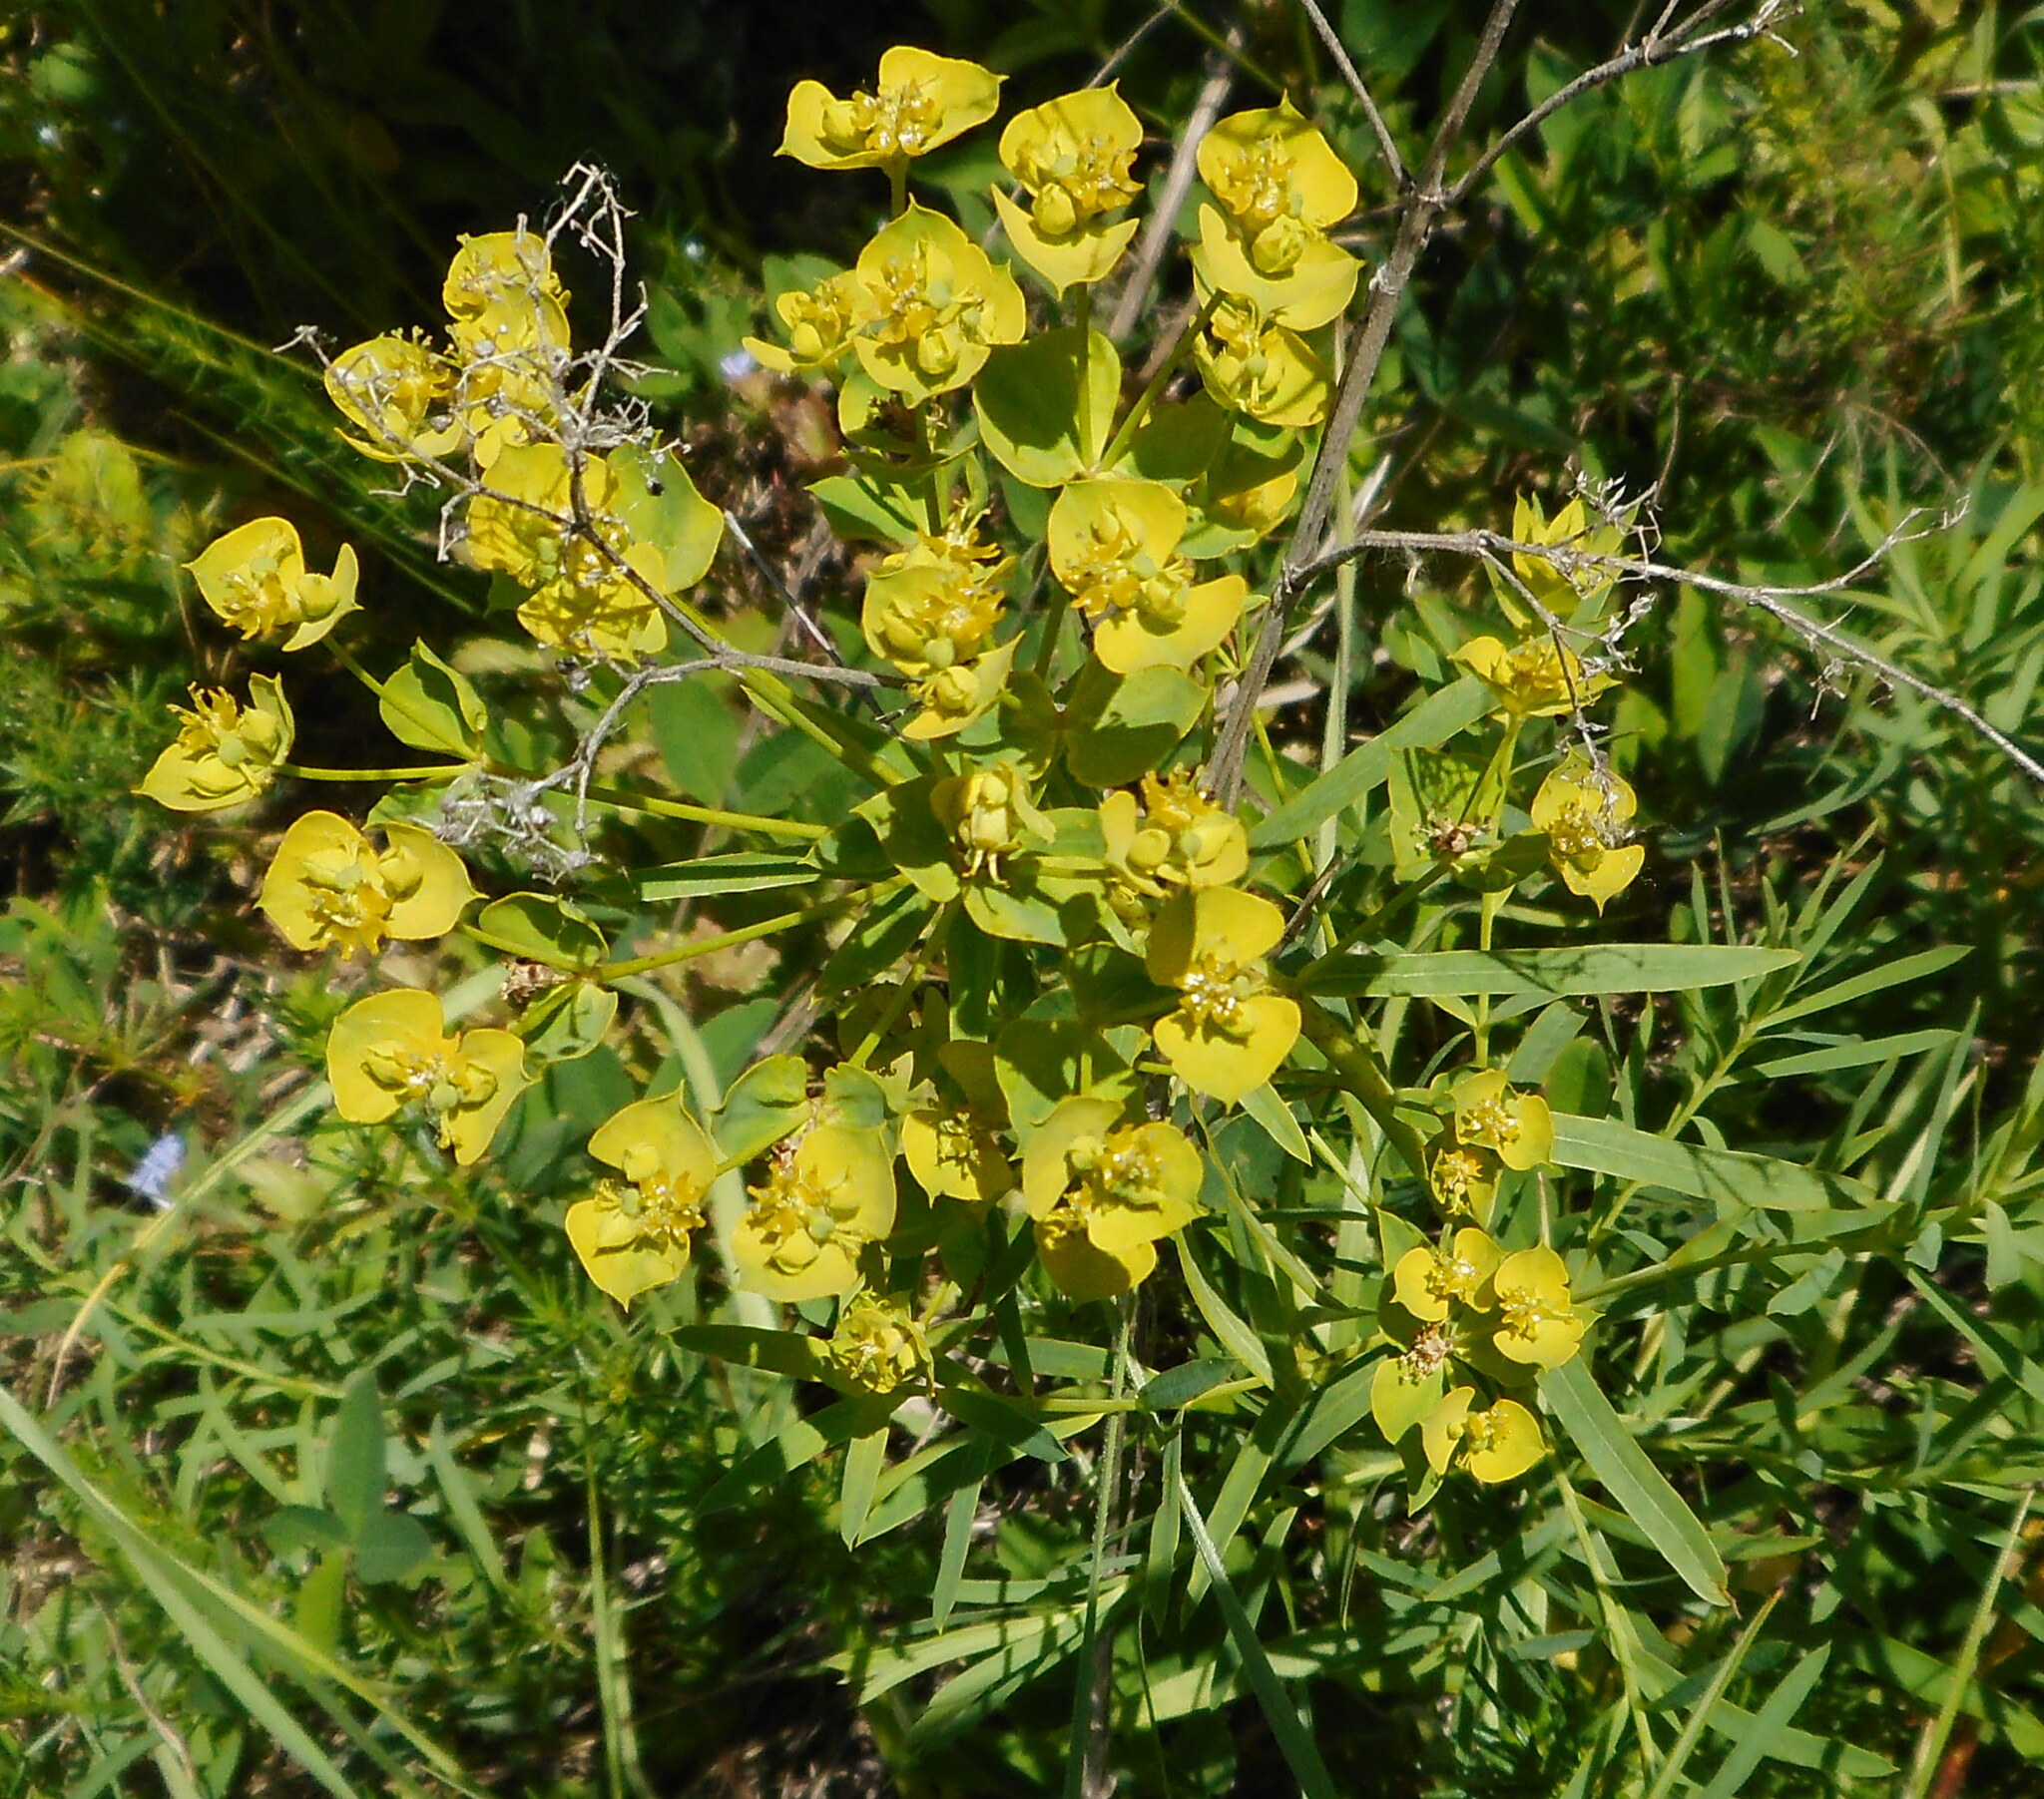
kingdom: Plantae
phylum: Tracheophyta
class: Magnoliopsida
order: Malpighiales
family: Euphorbiaceae
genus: Euphorbia
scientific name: Euphorbia virgata
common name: Leafy spurge
